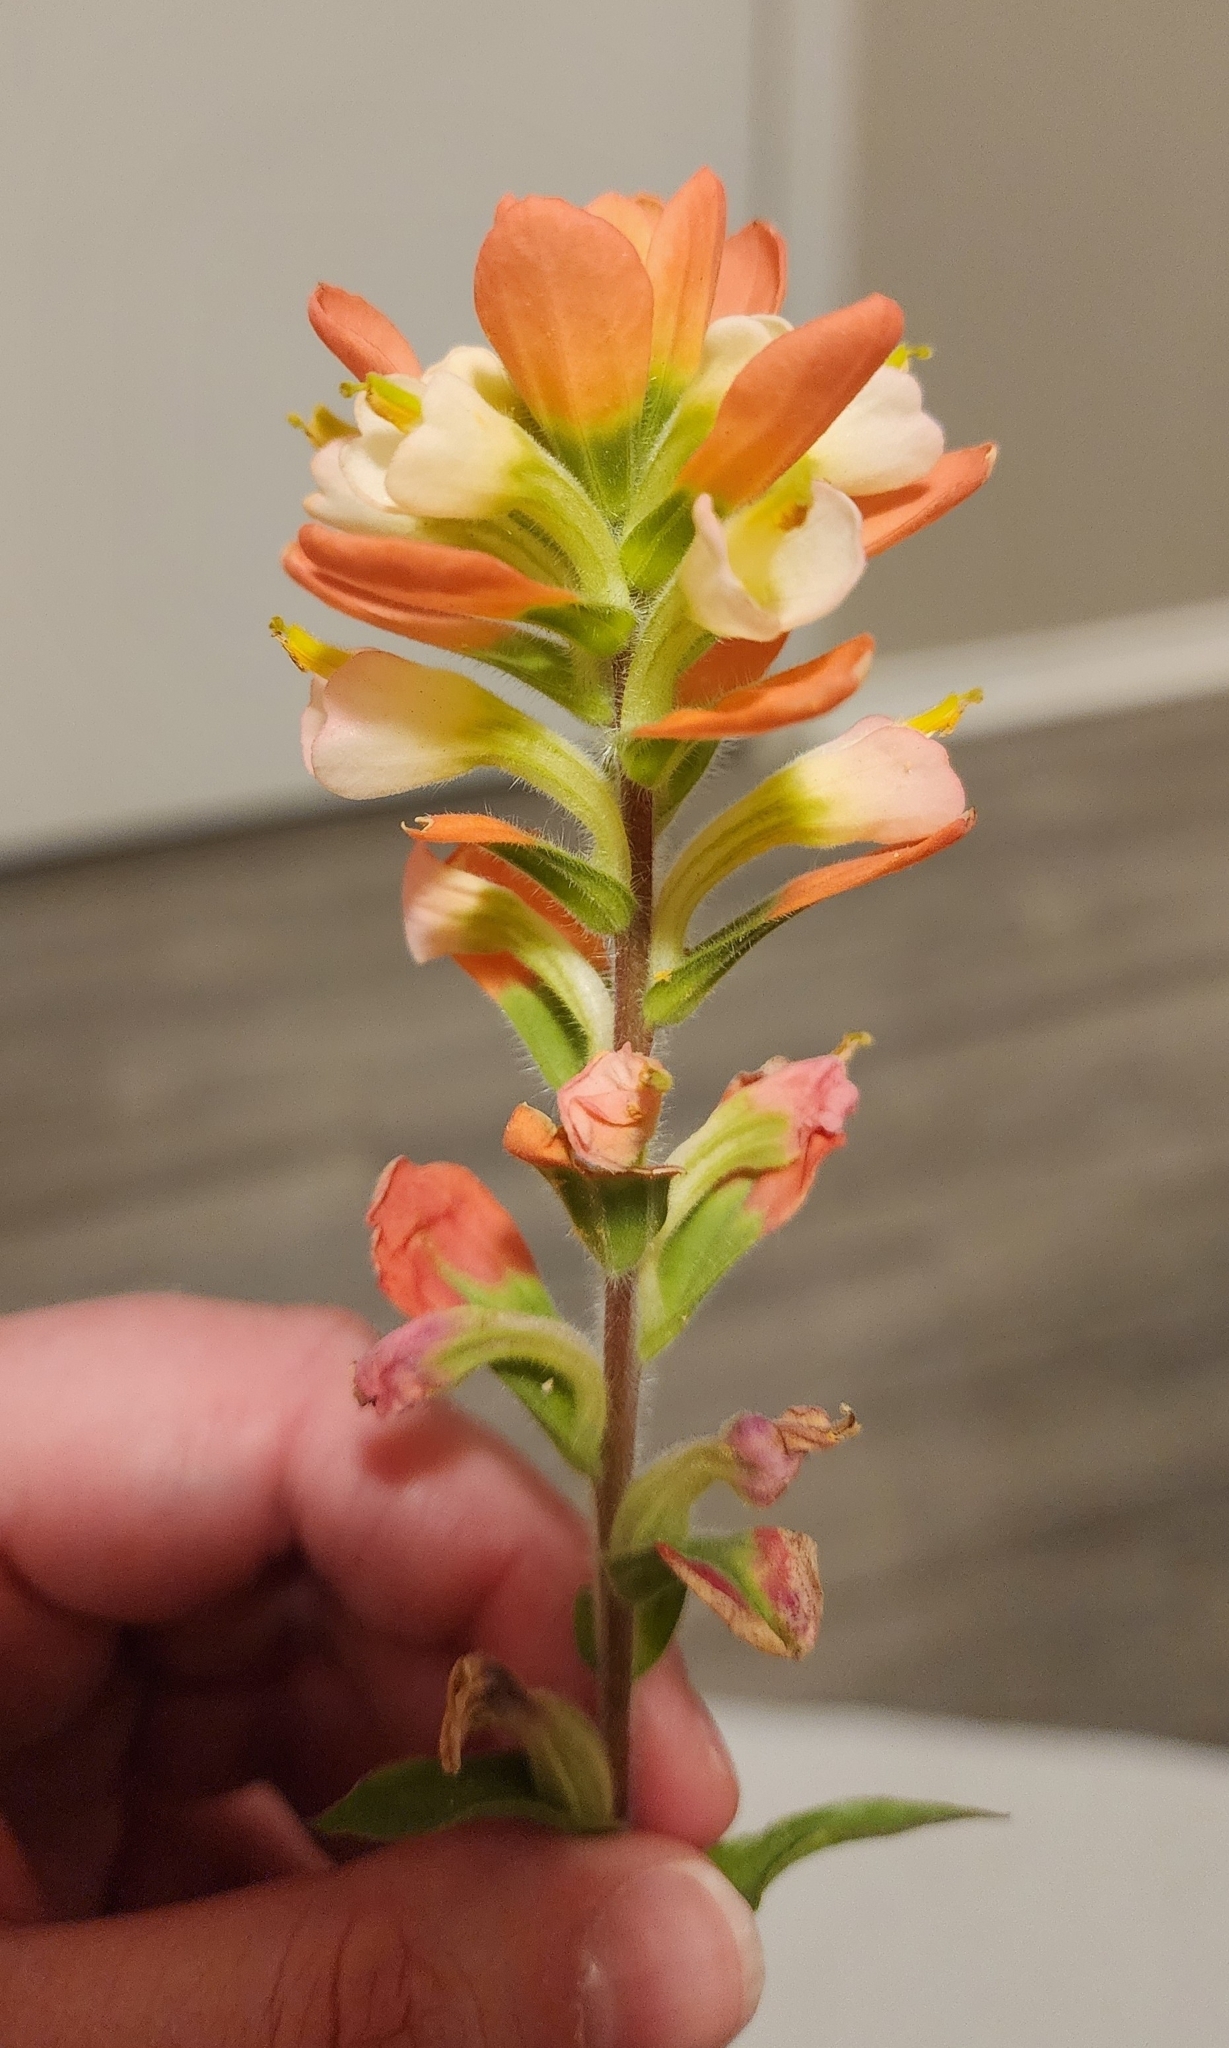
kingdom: Plantae
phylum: Tracheophyta
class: Magnoliopsida
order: Lamiales
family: Orobanchaceae
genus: Castilleja
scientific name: Castilleja indivisa
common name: Texas paintbrush
